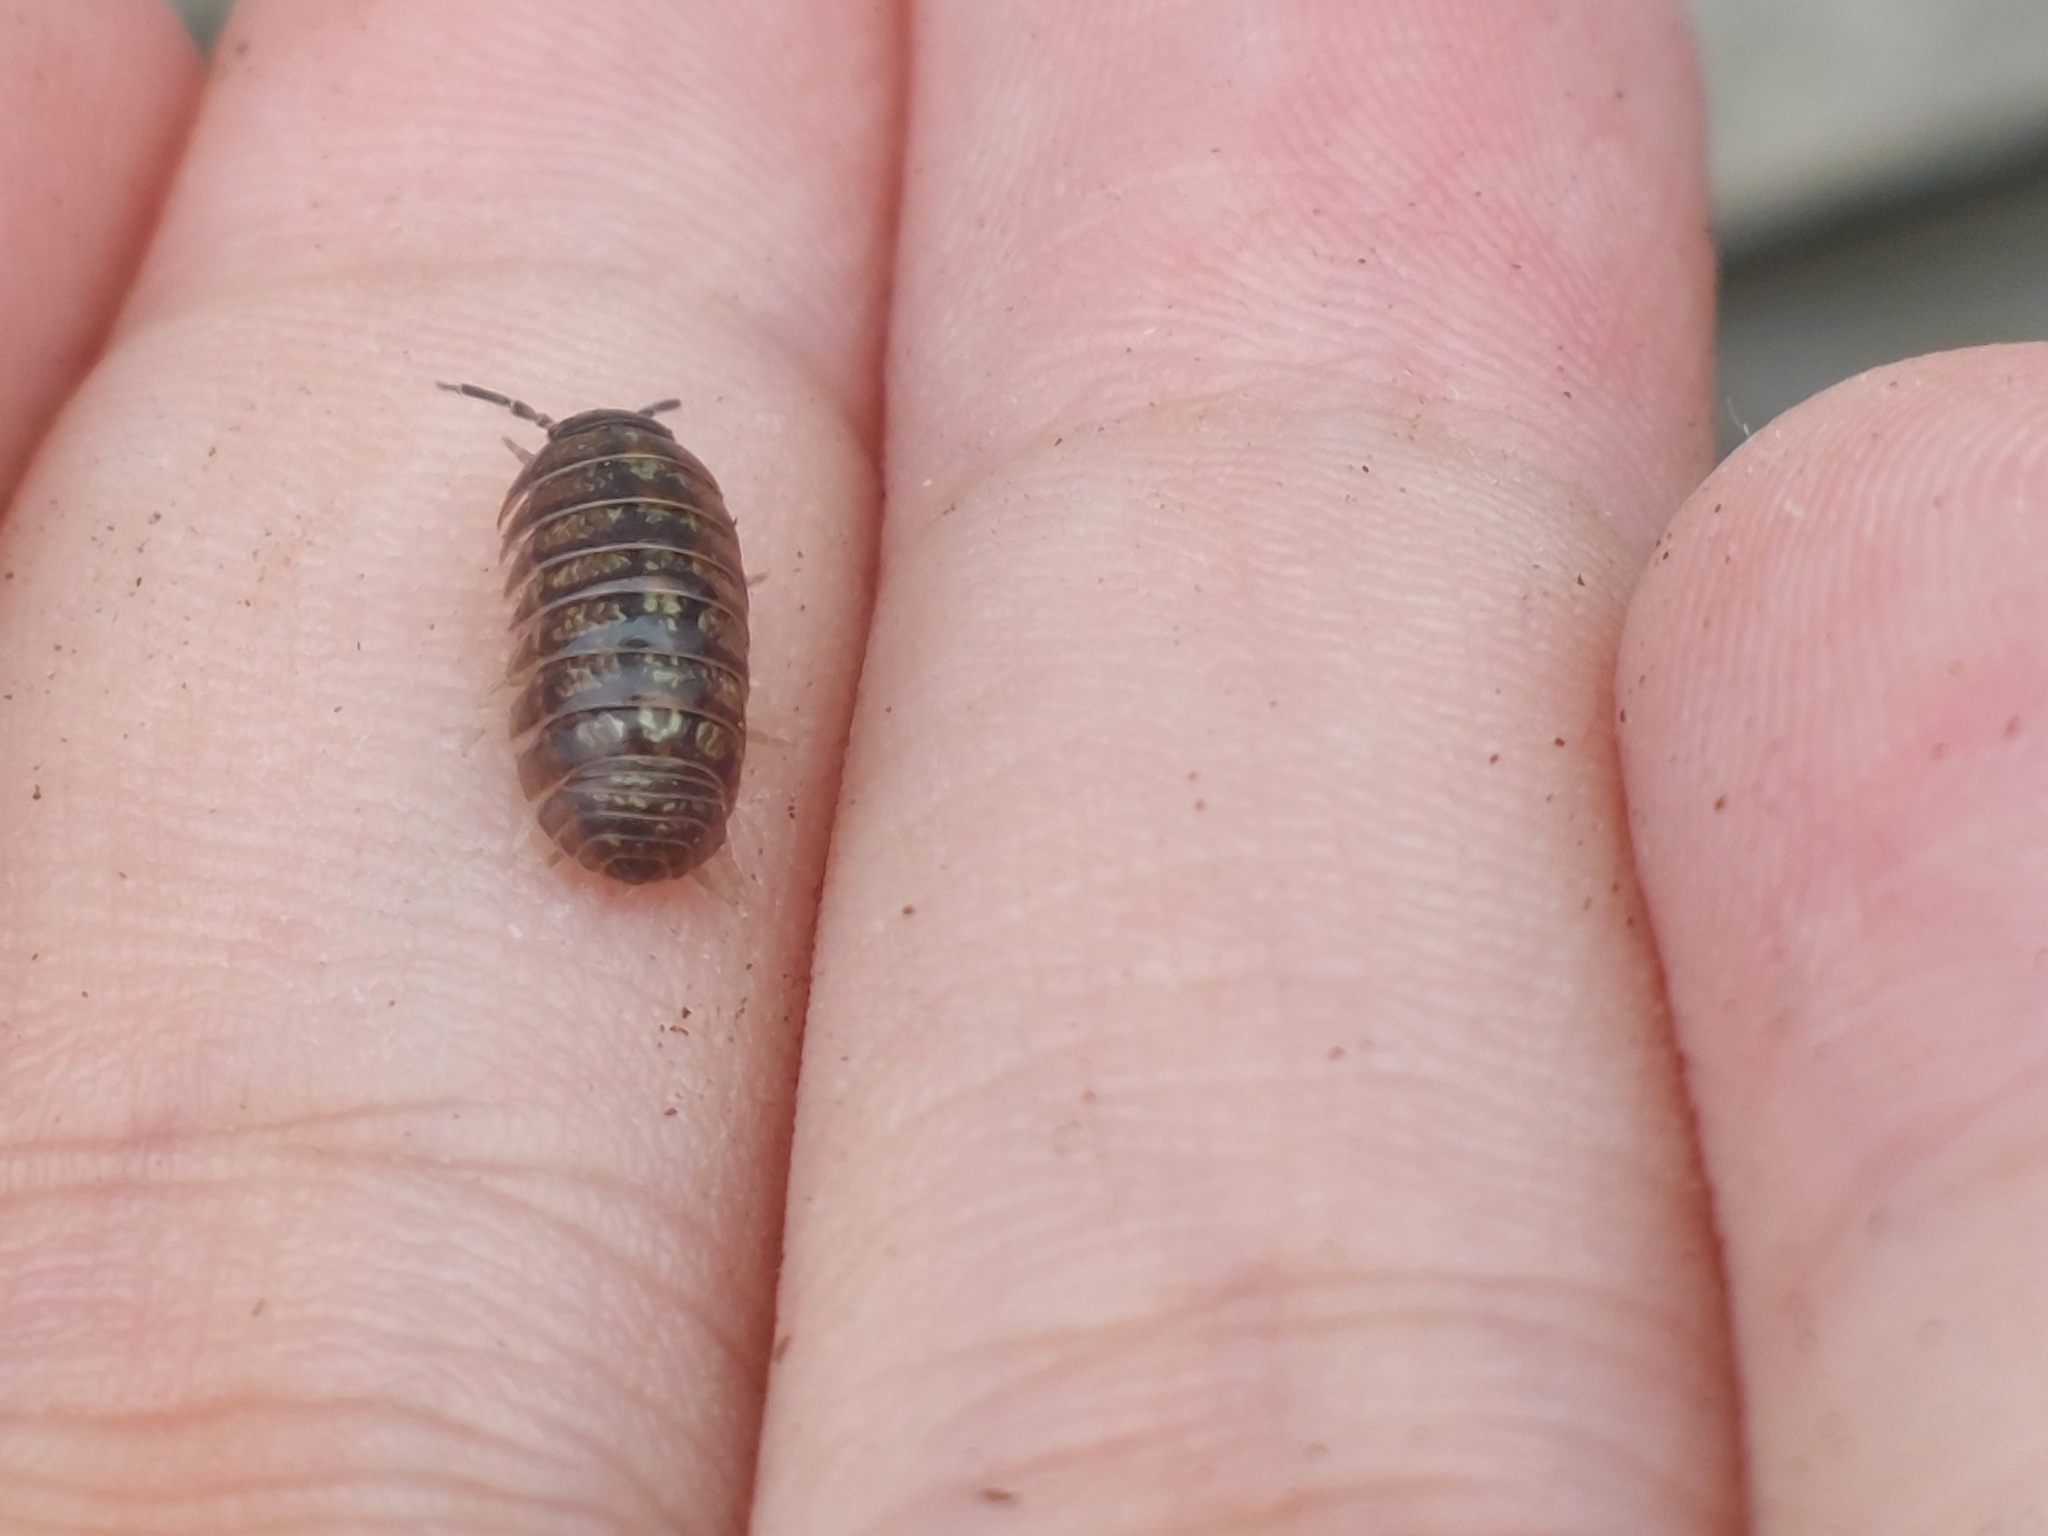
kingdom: Animalia
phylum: Arthropoda
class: Malacostraca
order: Isopoda
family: Armadillidiidae
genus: Armadillidium
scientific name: Armadillidium vulgare
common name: Common pill woodlouse
